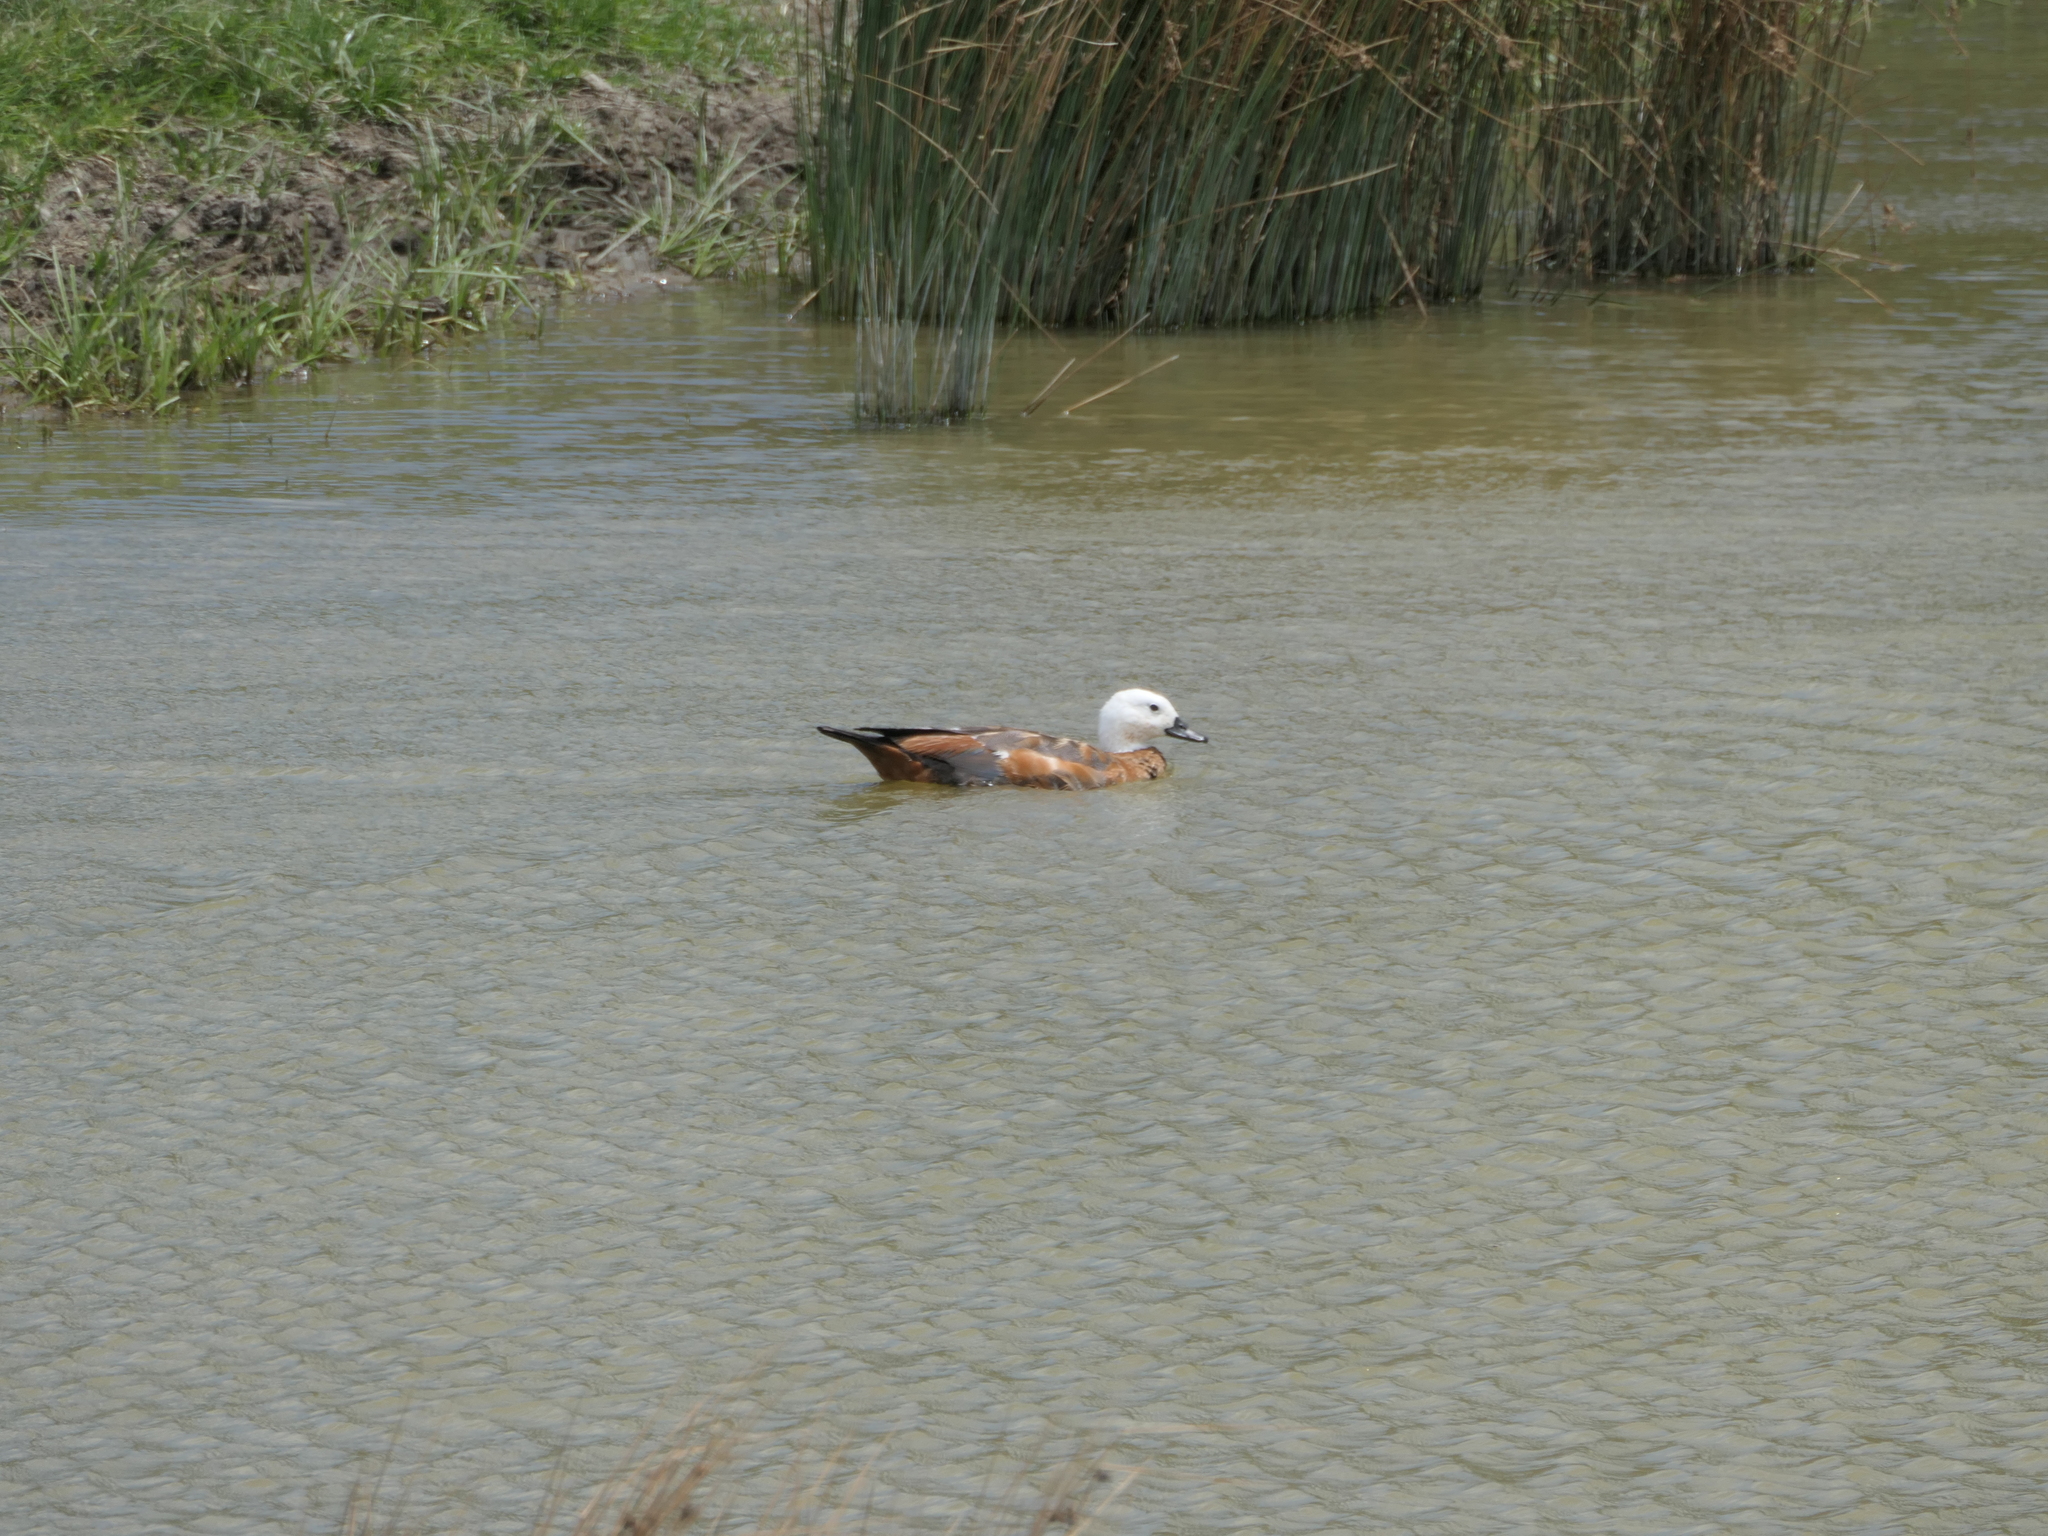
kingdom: Animalia
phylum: Chordata
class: Aves
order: Anseriformes
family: Anatidae
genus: Tadorna
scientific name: Tadorna variegata
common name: Paradise shelduck
